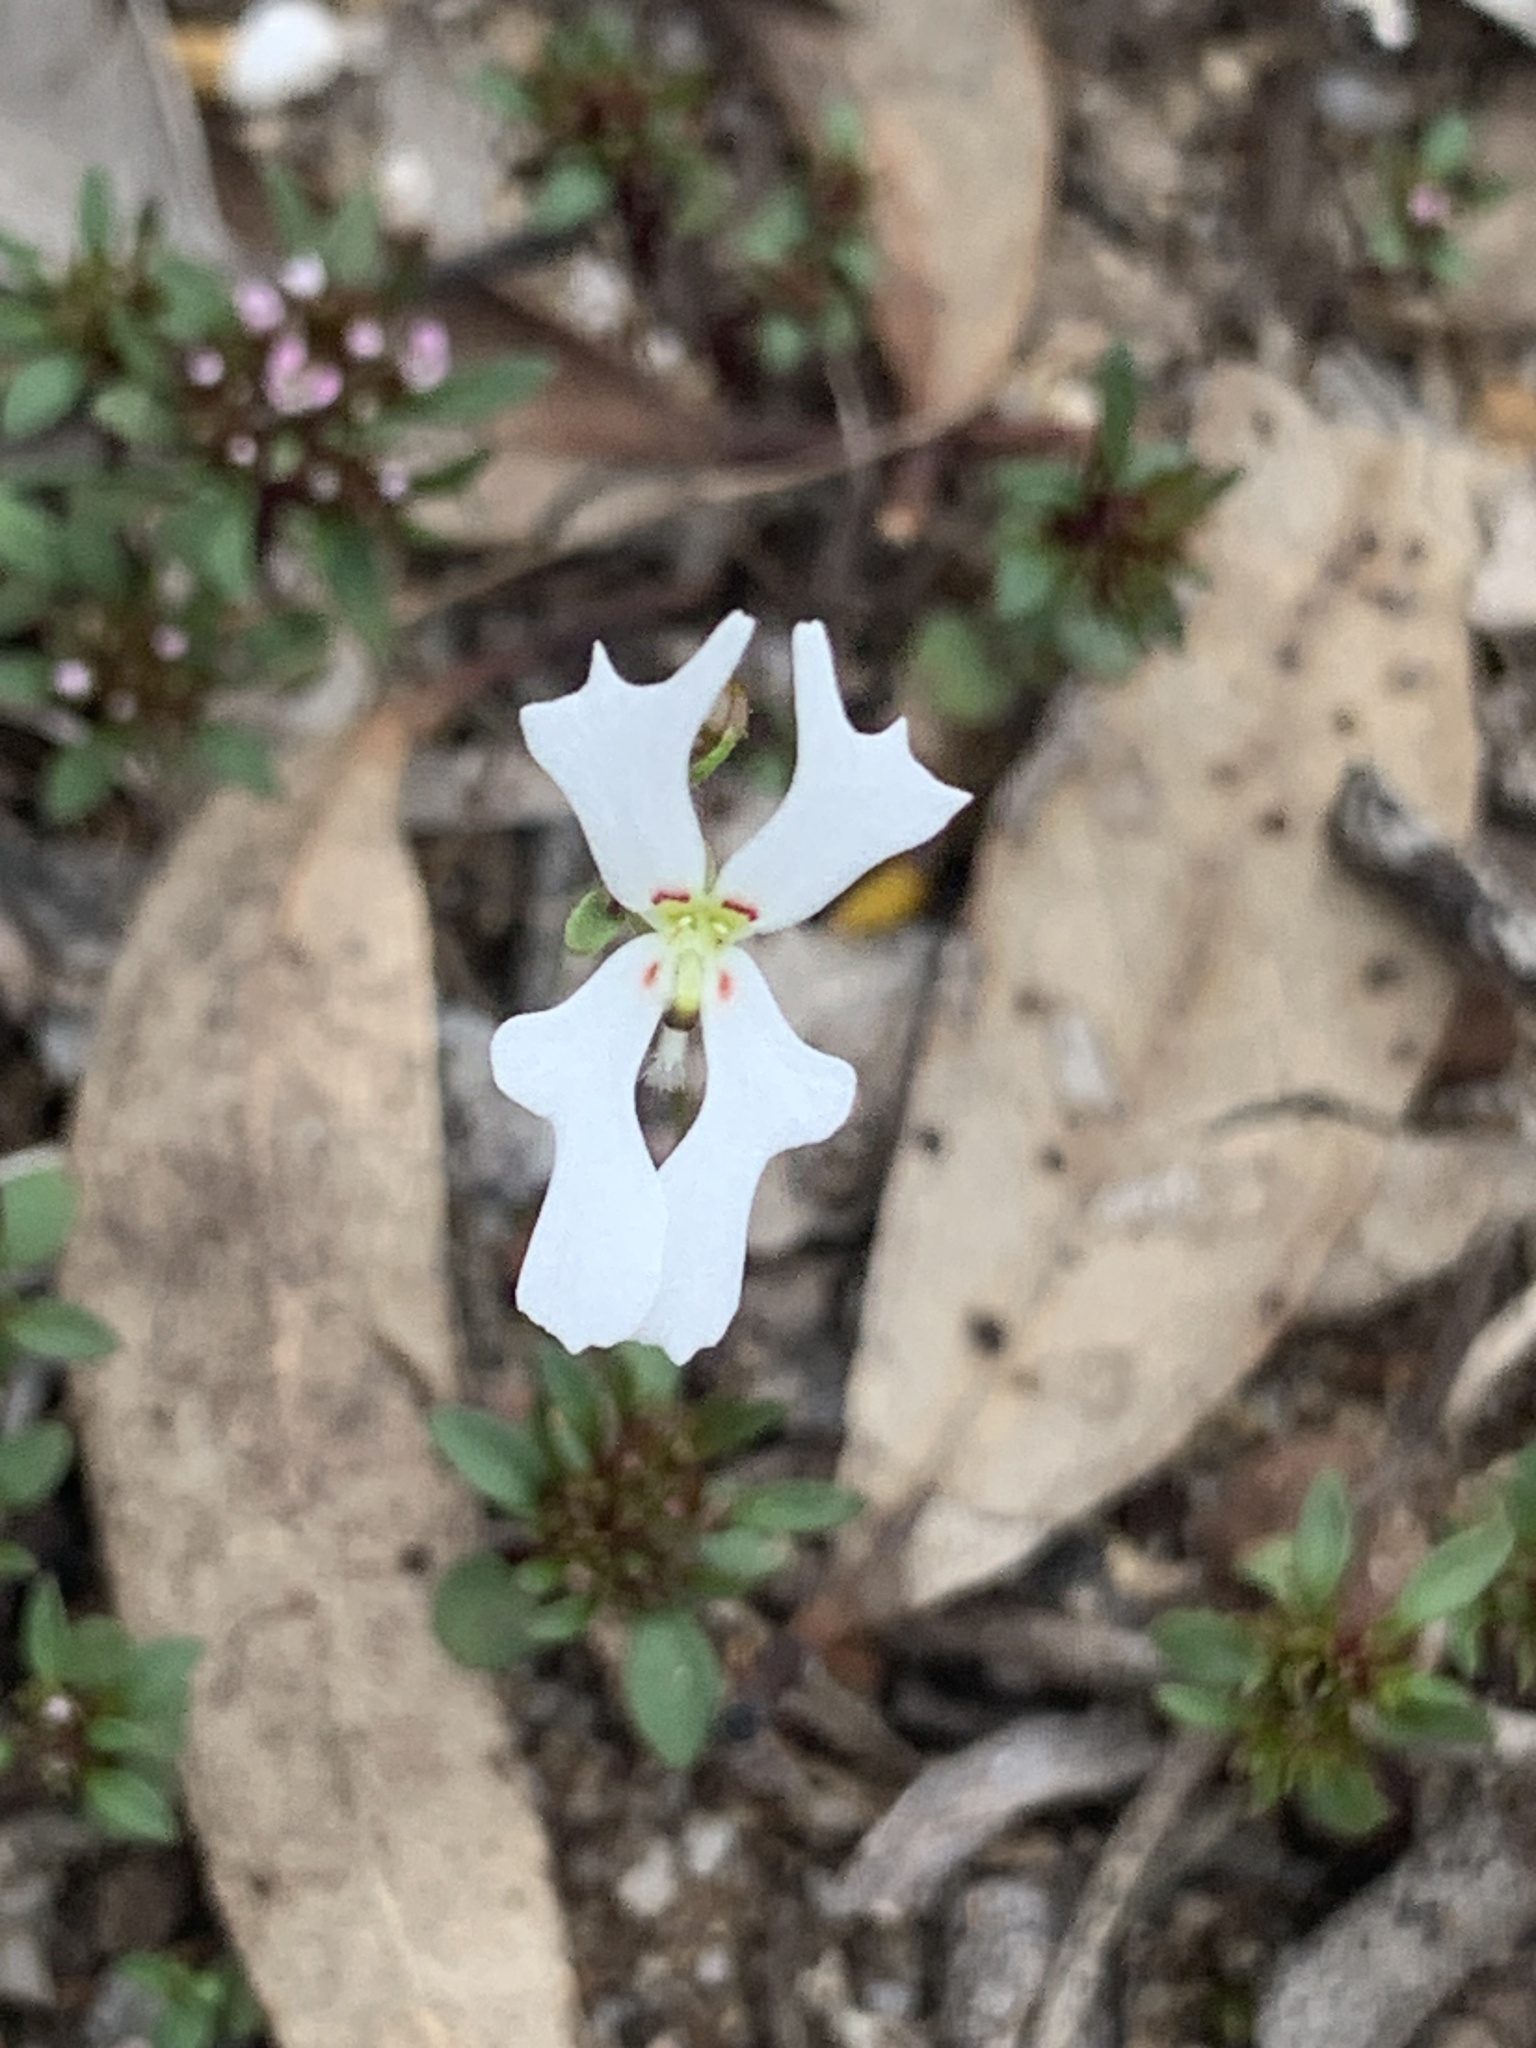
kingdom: Plantae
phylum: Tracheophyta
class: Magnoliopsida
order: Asterales
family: Stylidiaceae
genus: Stylidium
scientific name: Stylidium androsaceum
